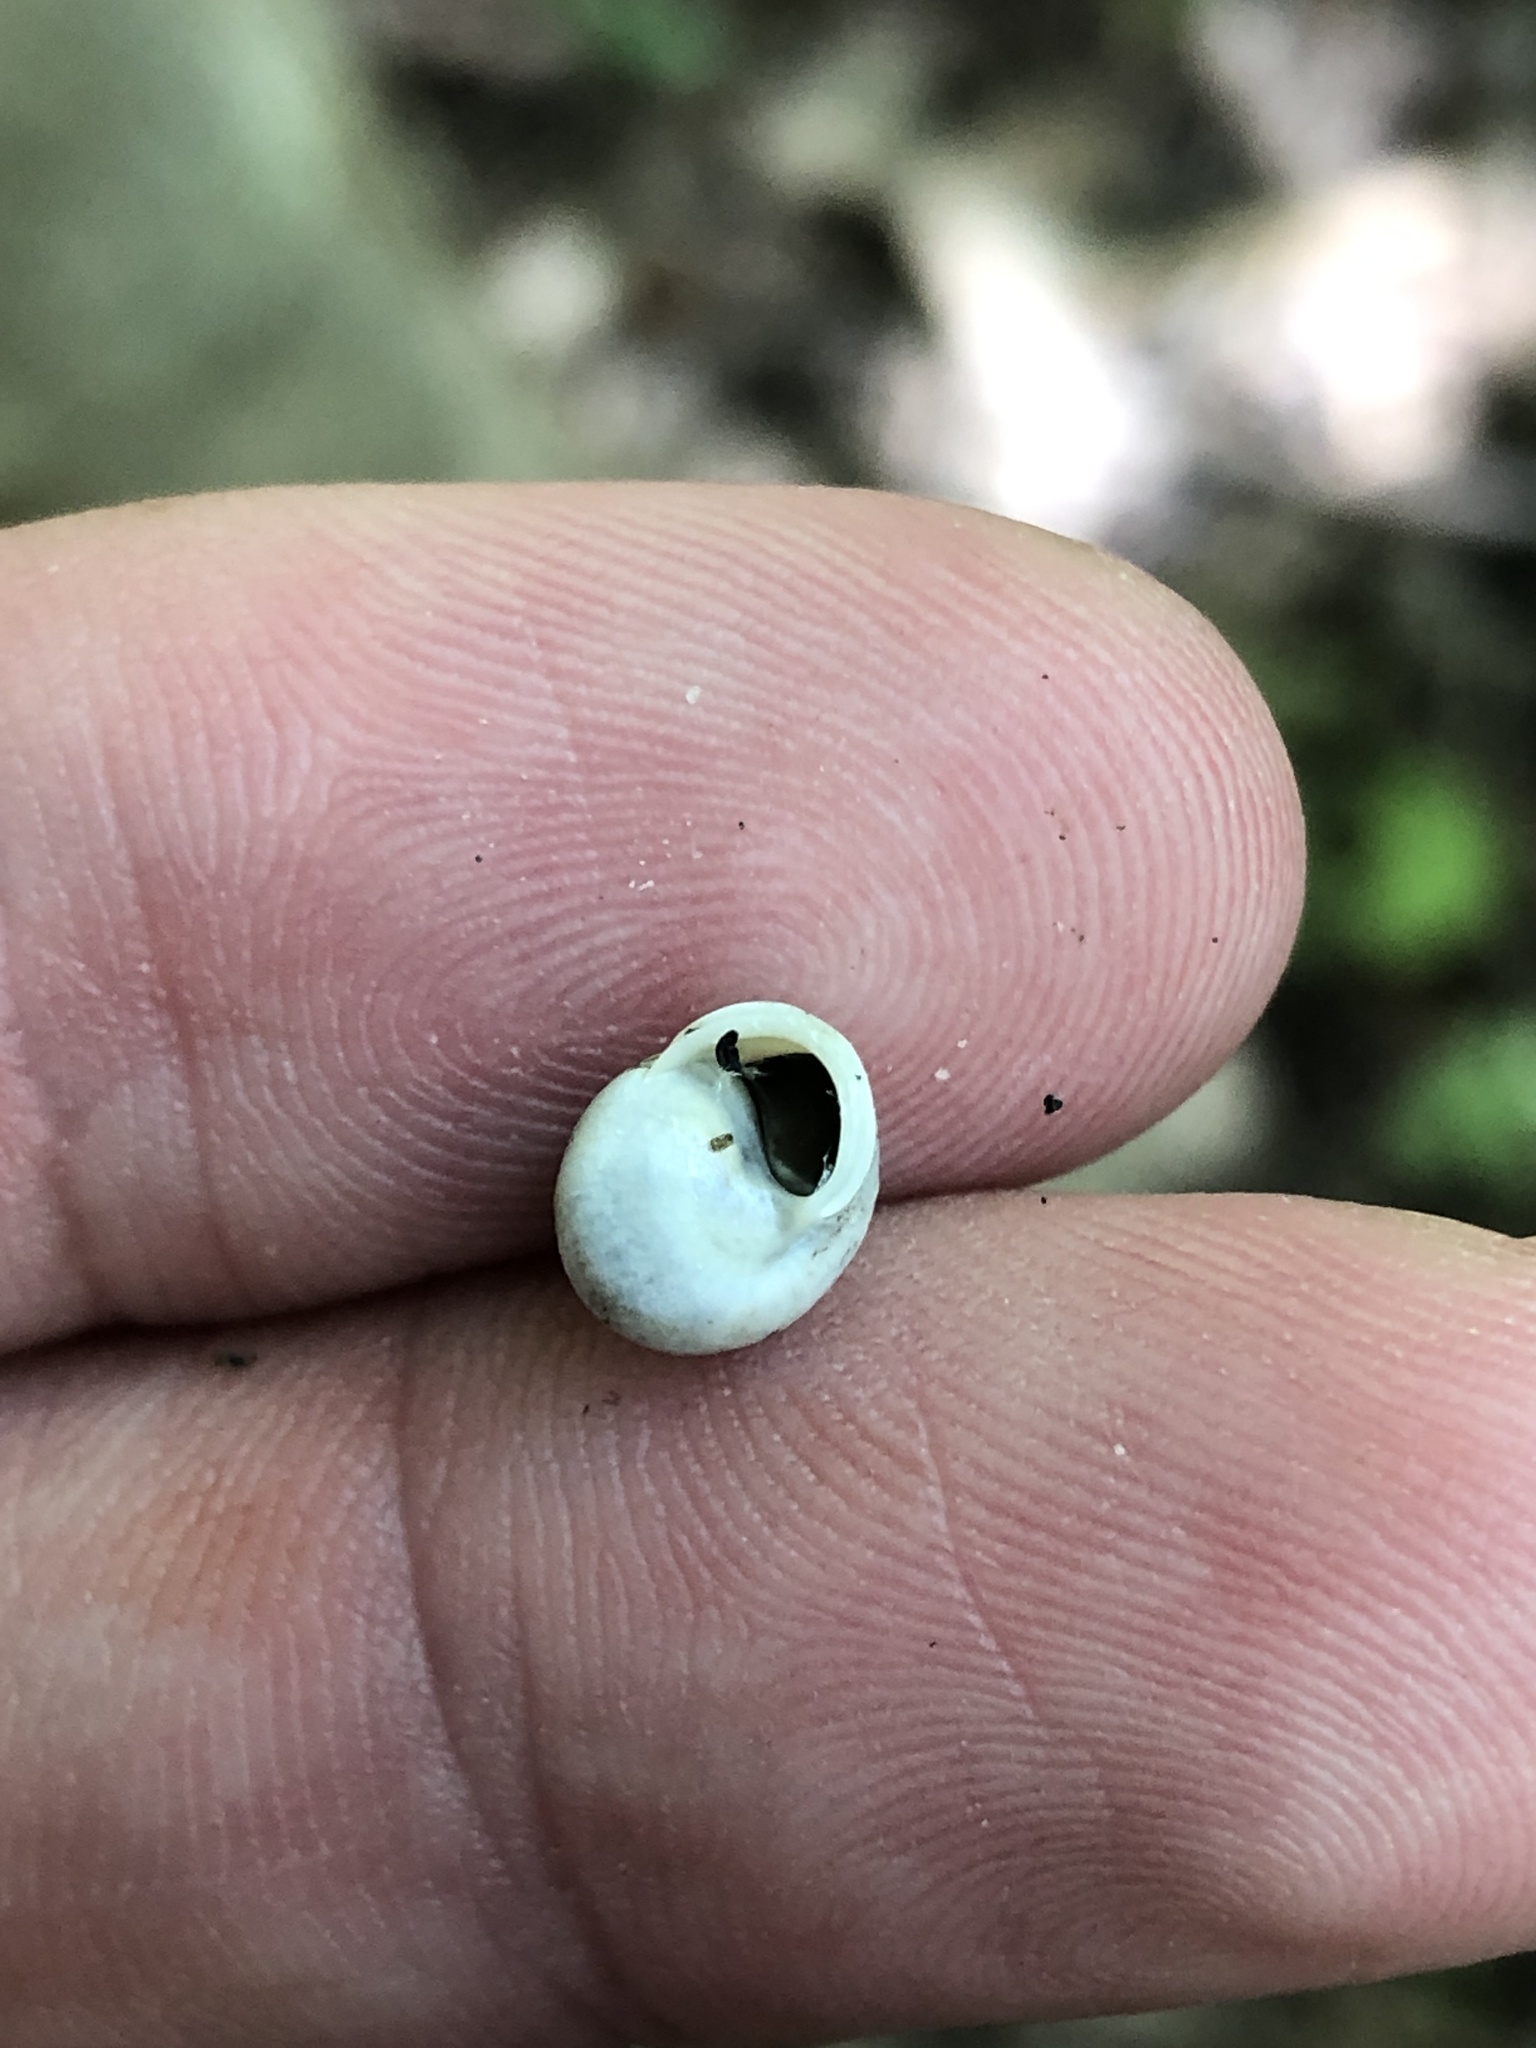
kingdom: Animalia
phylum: Mollusca
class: Gastropoda
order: Cycloneritida
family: Helicinidae
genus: Helicina
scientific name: Helicina orbiculata
